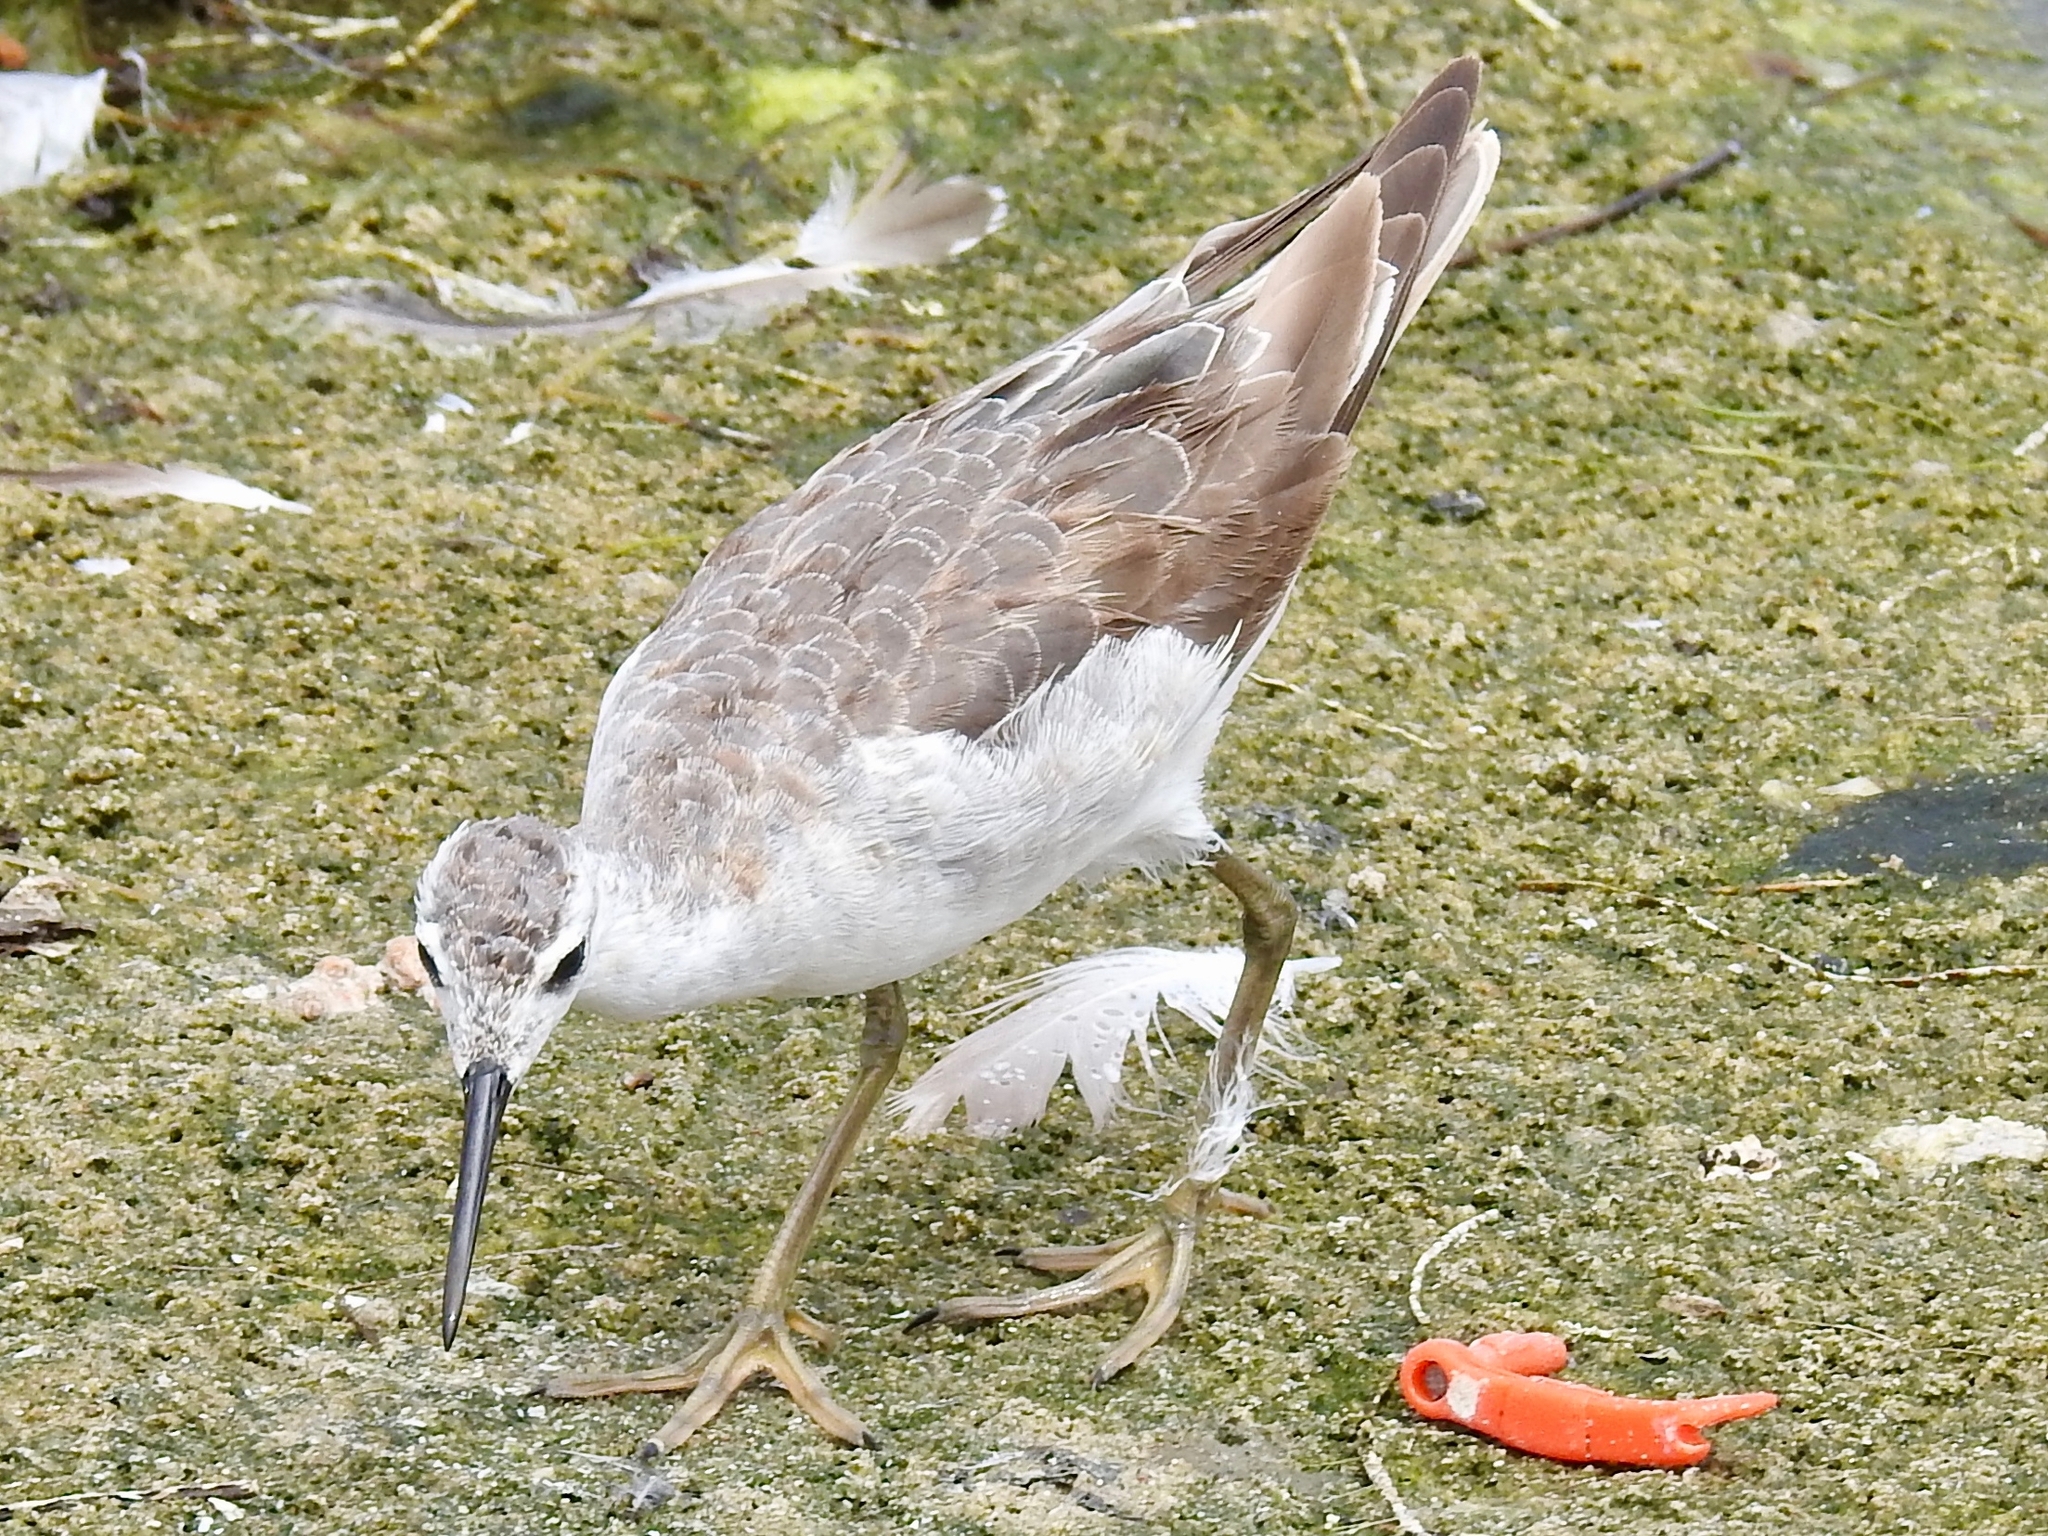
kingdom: Animalia
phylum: Chordata
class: Aves
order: Charadriiformes
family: Scolopacidae
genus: Phalaropus
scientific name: Phalaropus tricolor
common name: Wilson's phalarope
